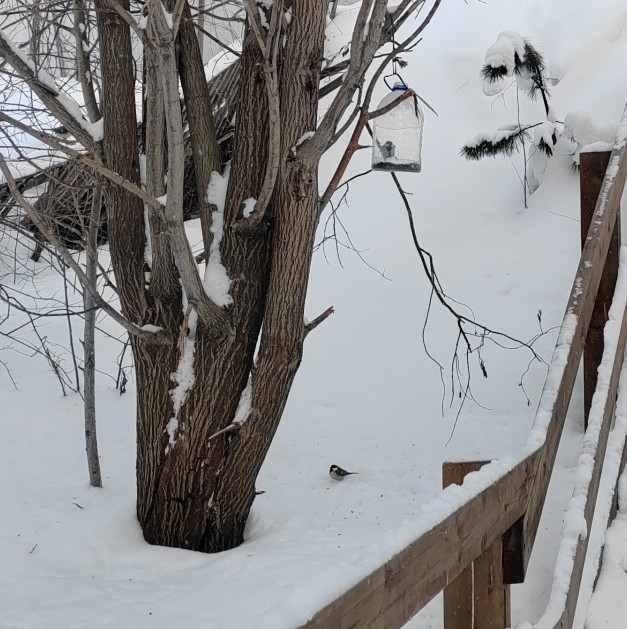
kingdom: Animalia
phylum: Chordata
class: Aves
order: Passeriformes
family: Paridae
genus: Parus
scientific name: Parus major
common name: Great tit
